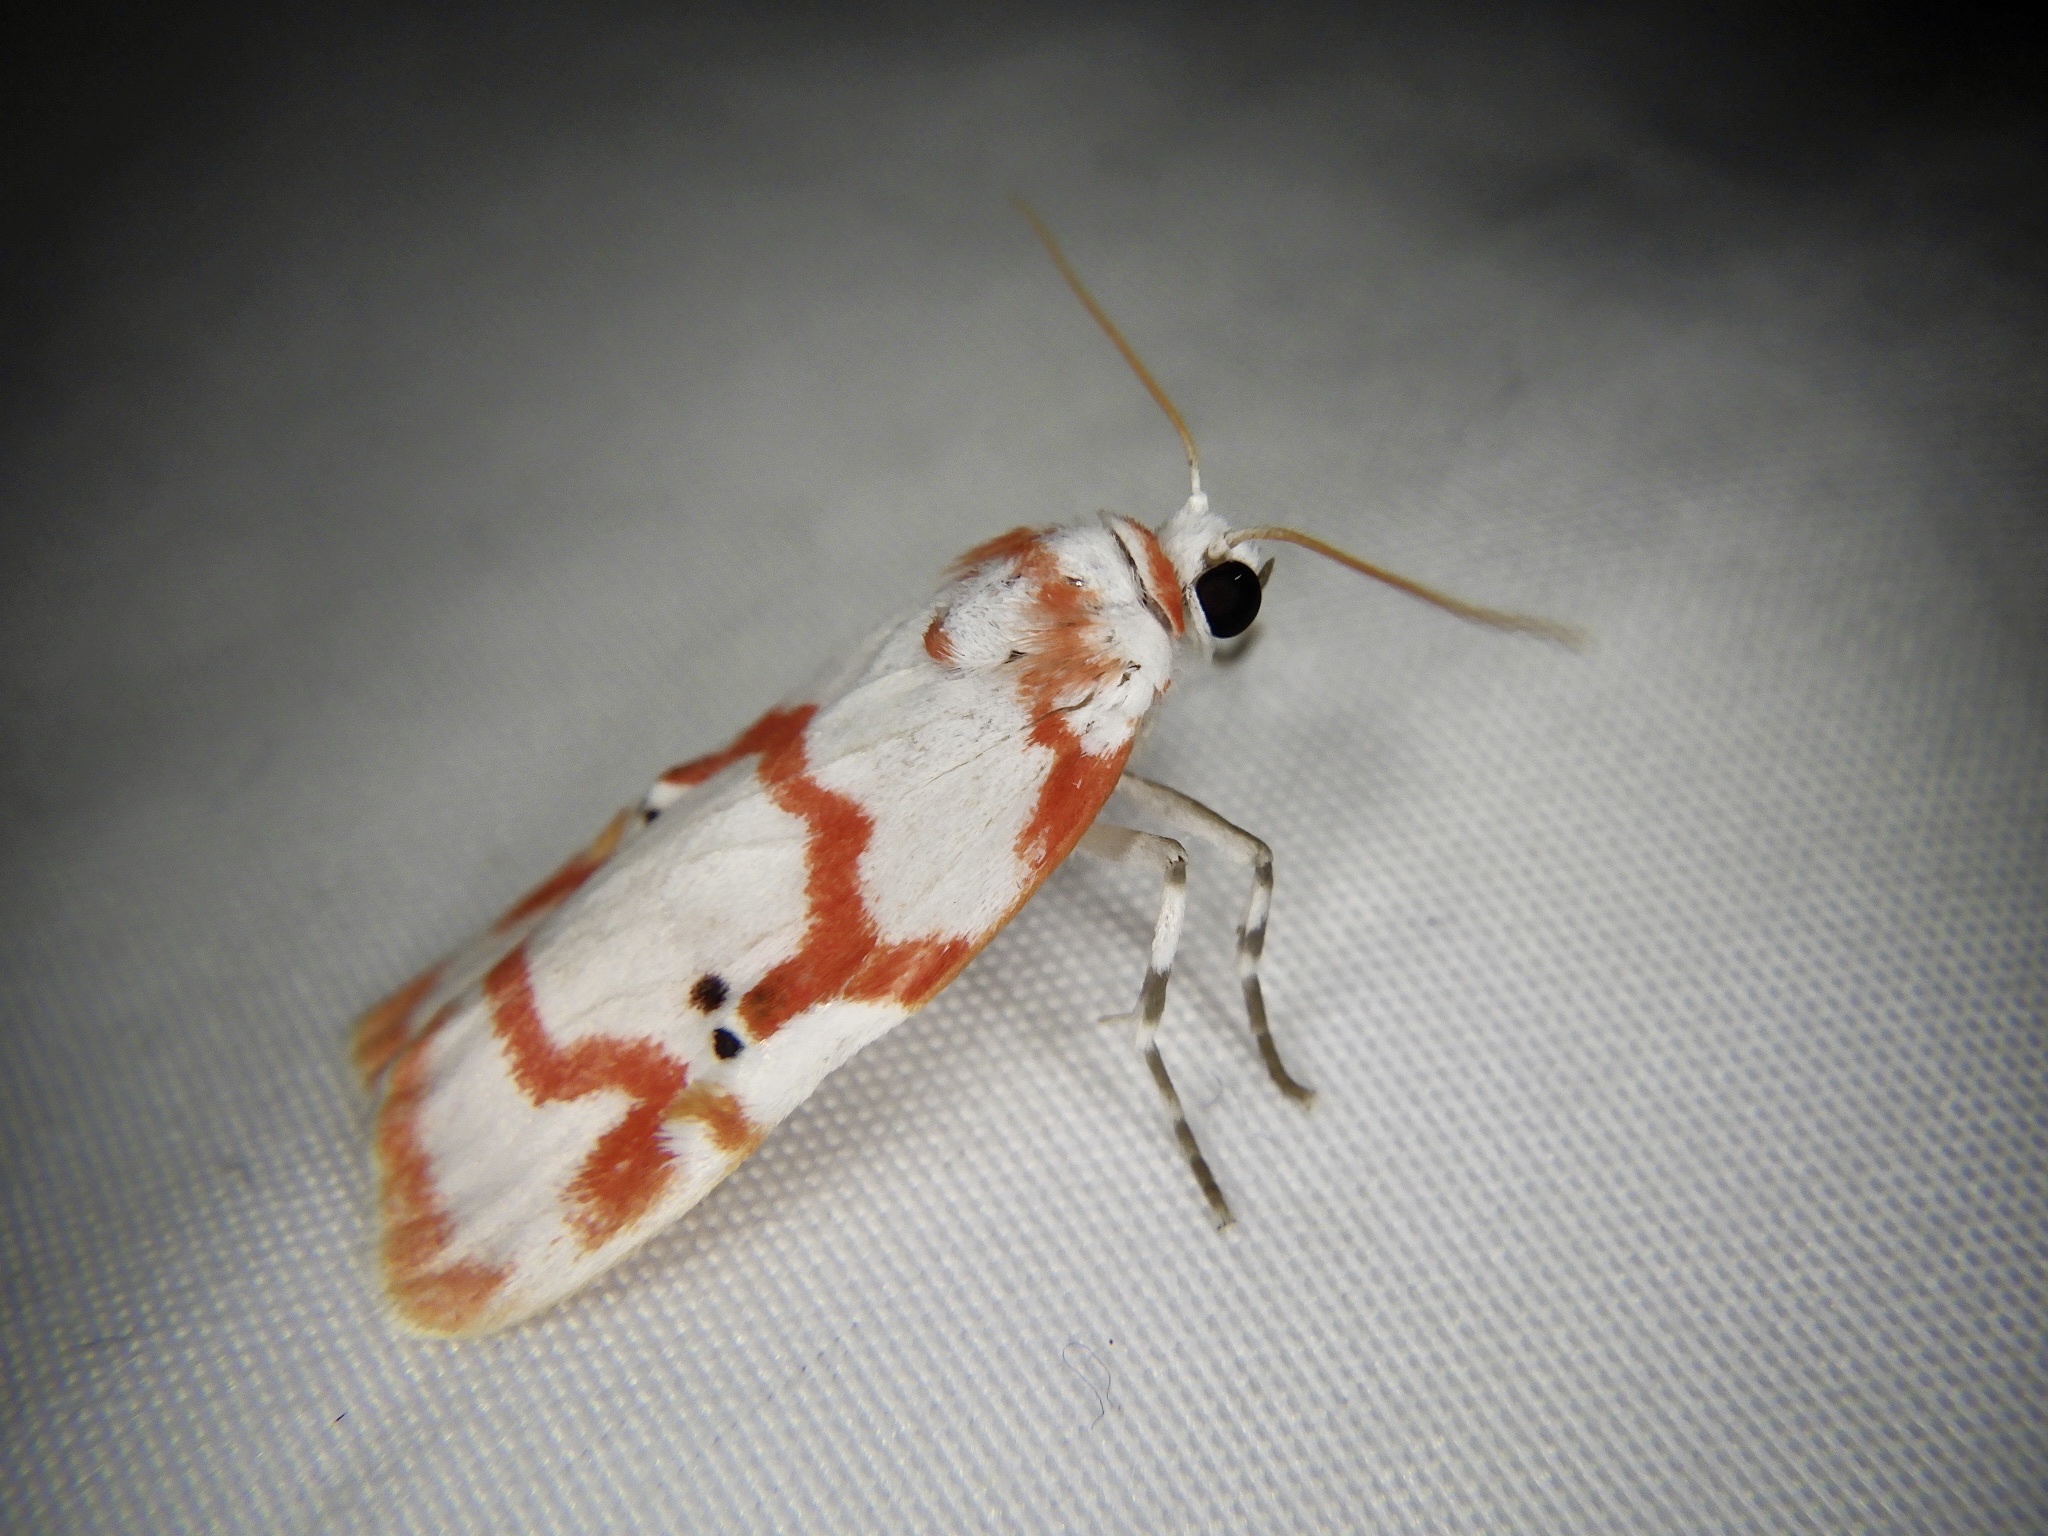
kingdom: Animalia
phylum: Arthropoda
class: Insecta
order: Lepidoptera
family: Erebidae
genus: Cyana
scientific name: Cyana hamata
